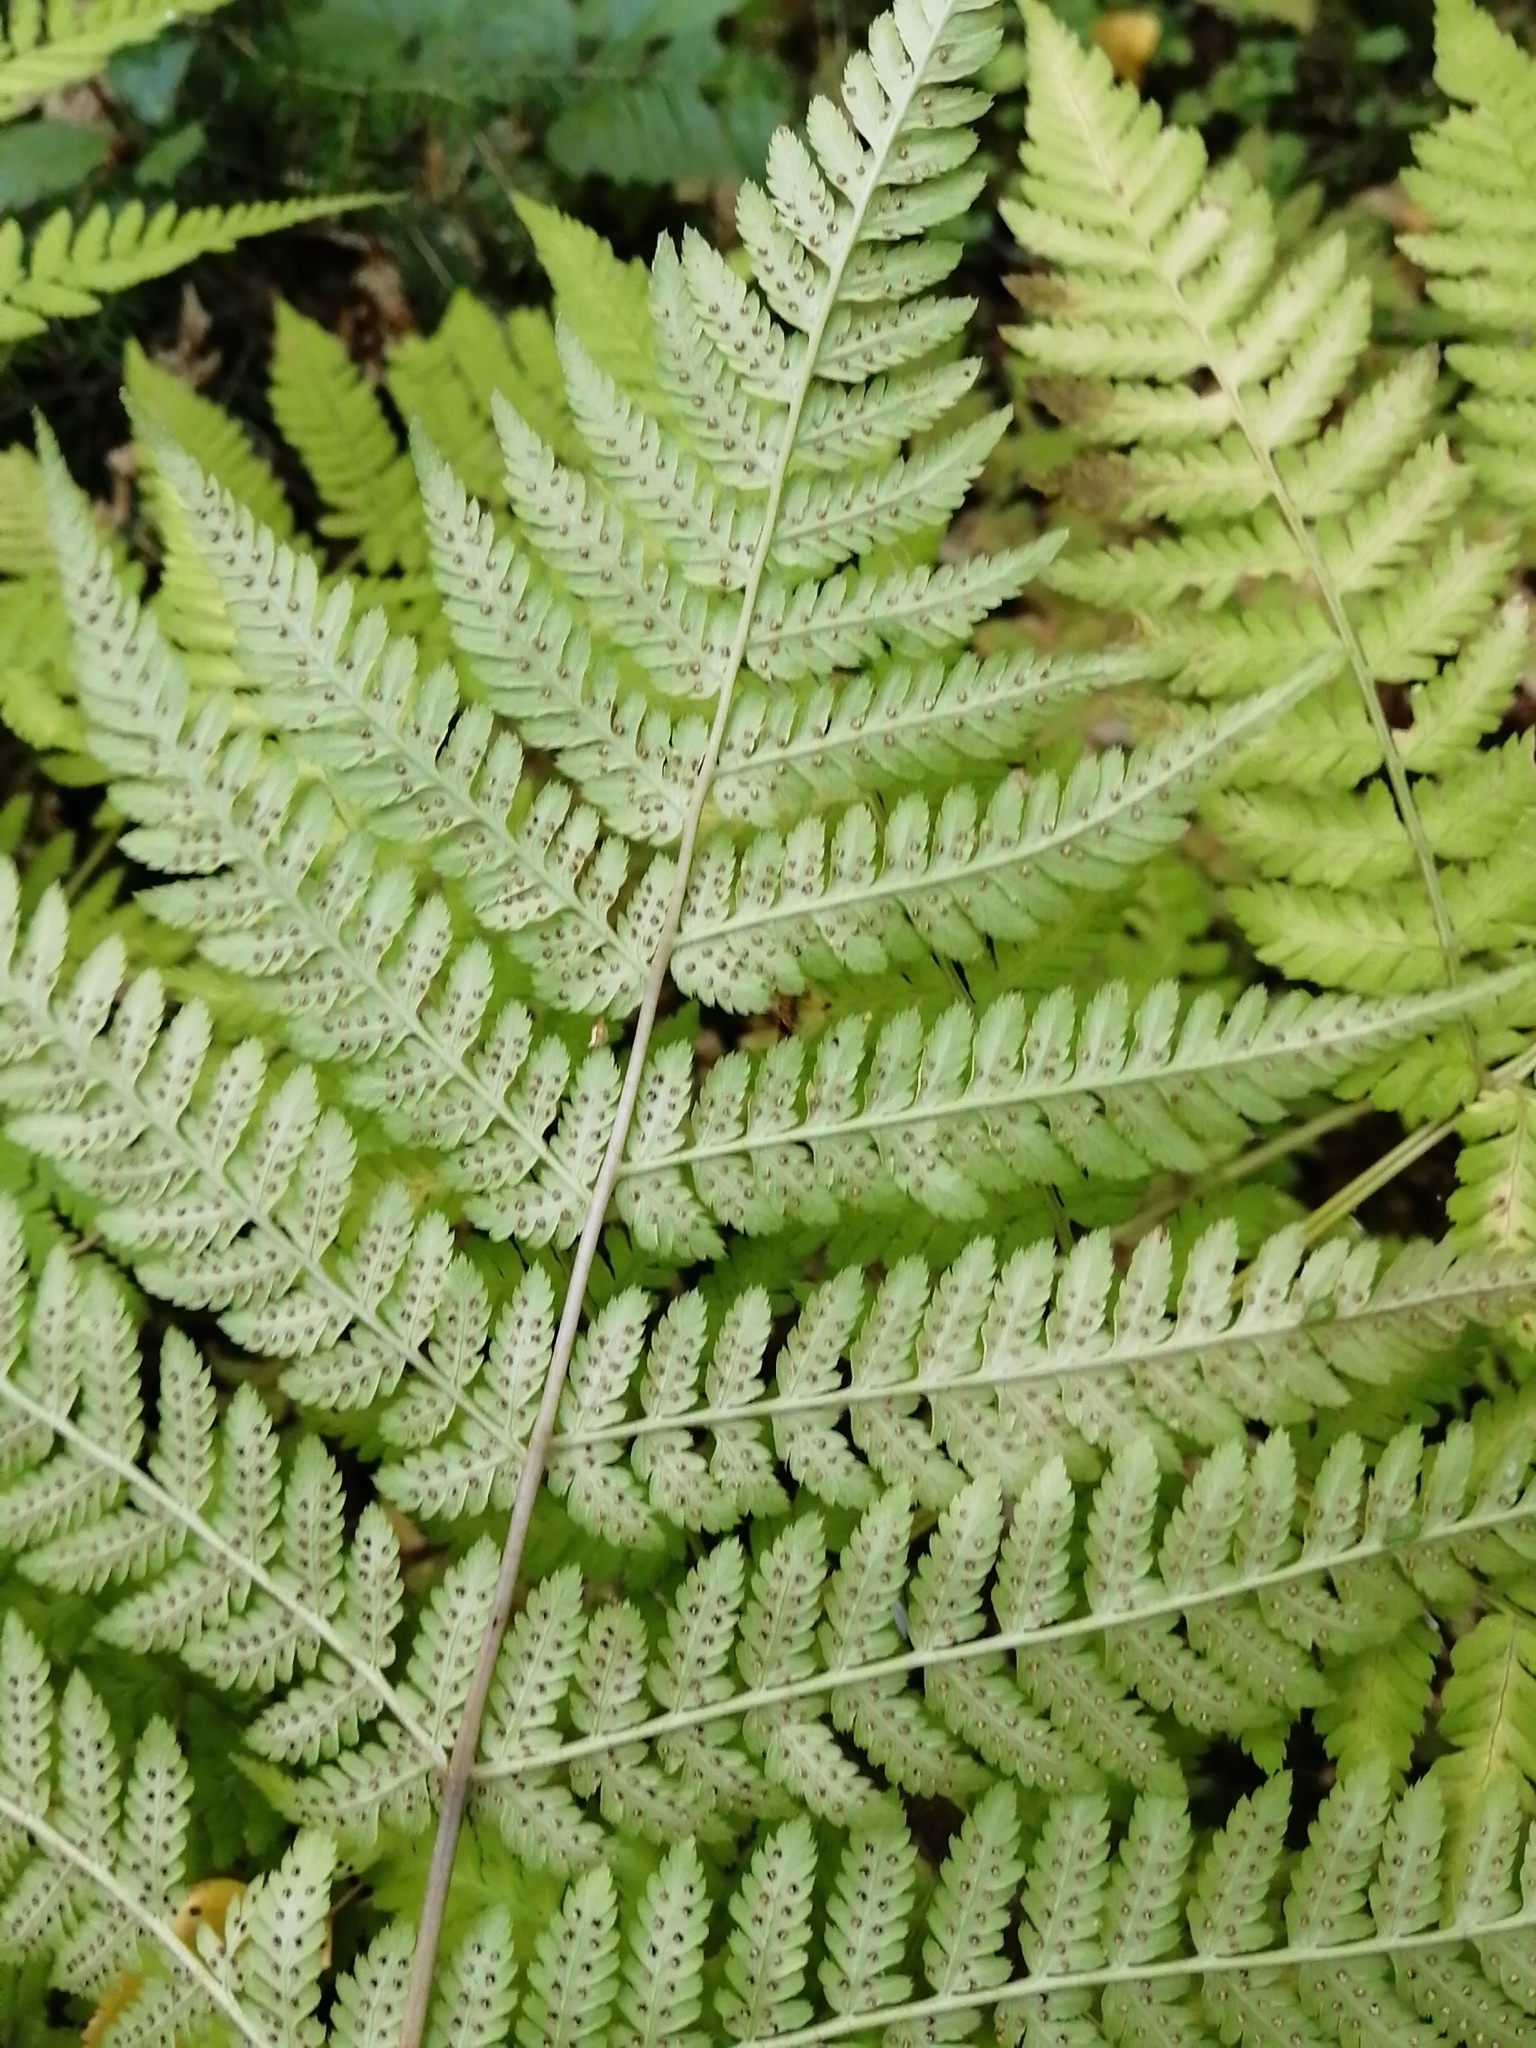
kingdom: Plantae
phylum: Tracheophyta
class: Polypodiopsida
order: Polypodiales
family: Dryopteridaceae
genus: Dryopteris
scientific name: Dryopteris expansa
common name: Northern buckler fern
